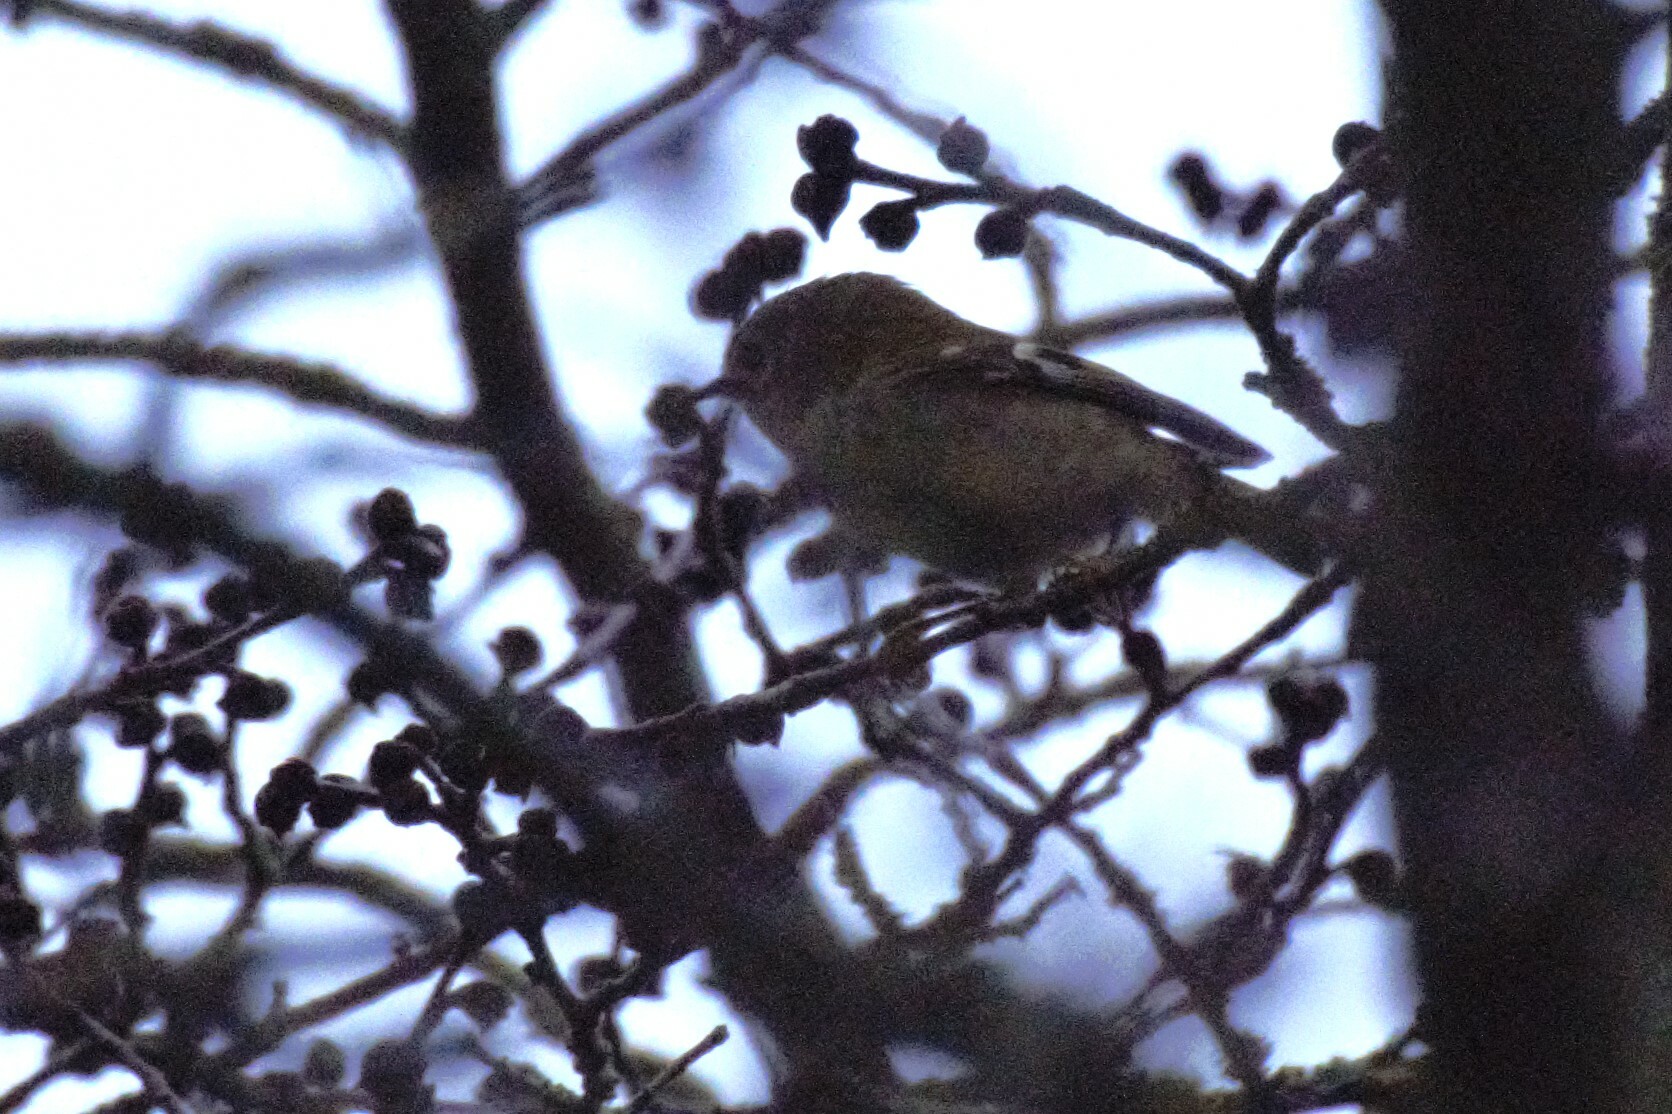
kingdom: Animalia
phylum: Chordata
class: Aves
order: Passeriformes
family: Regulidae
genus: Regulus
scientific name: Regulus regulus
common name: Goldcrest
